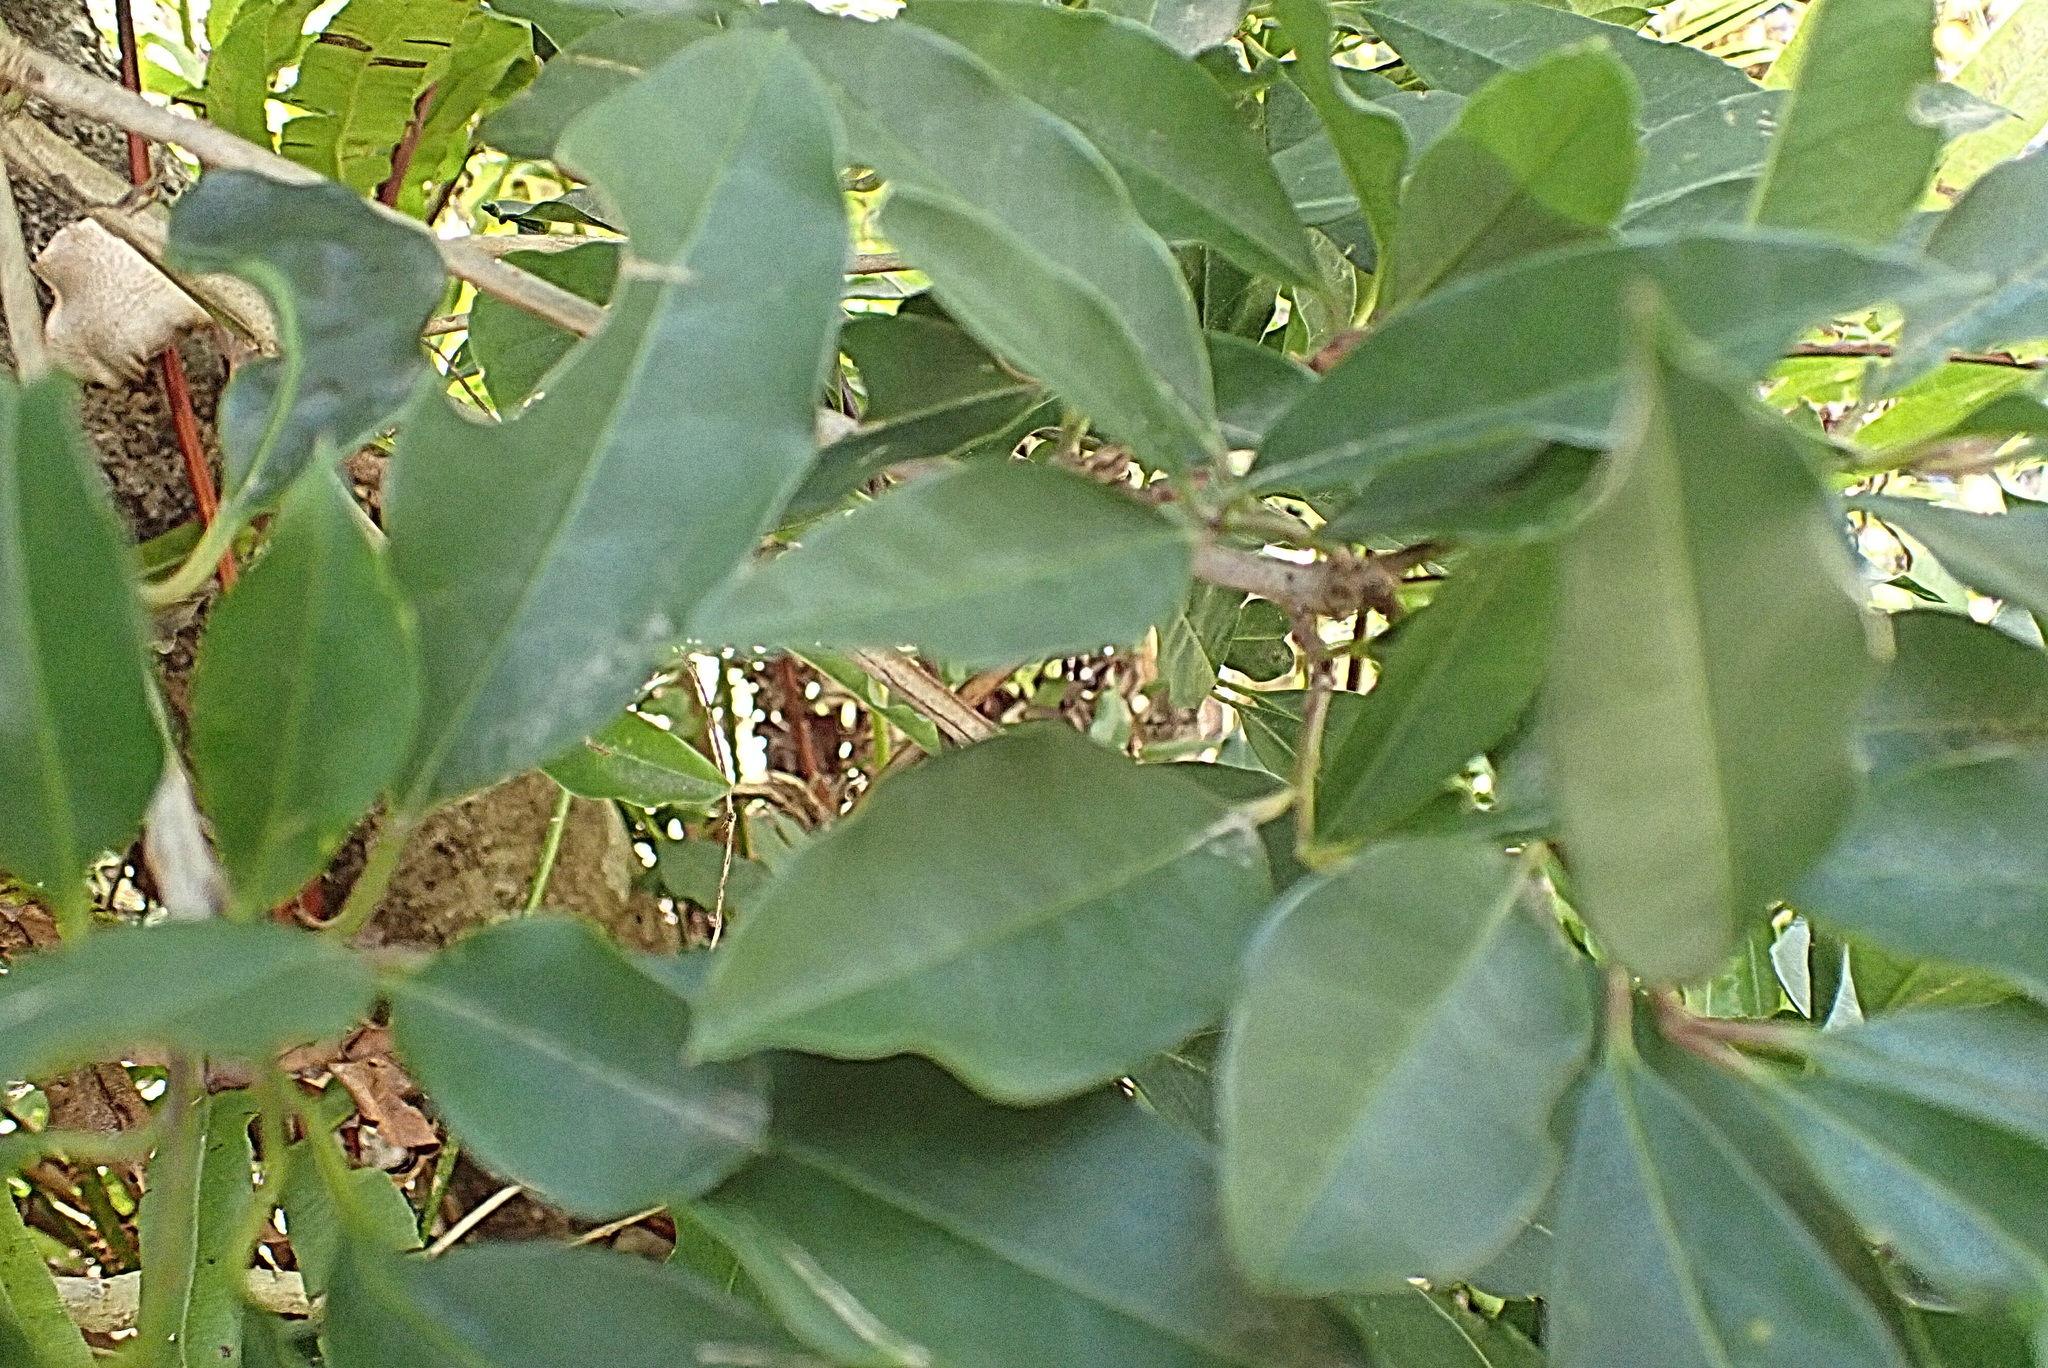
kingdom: Plantae
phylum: Tracheophyta
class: Magnoliopsida
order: Aquifoliales
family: Aquifoliaceae
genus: Ilex
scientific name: Ilex mitis
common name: African holly
